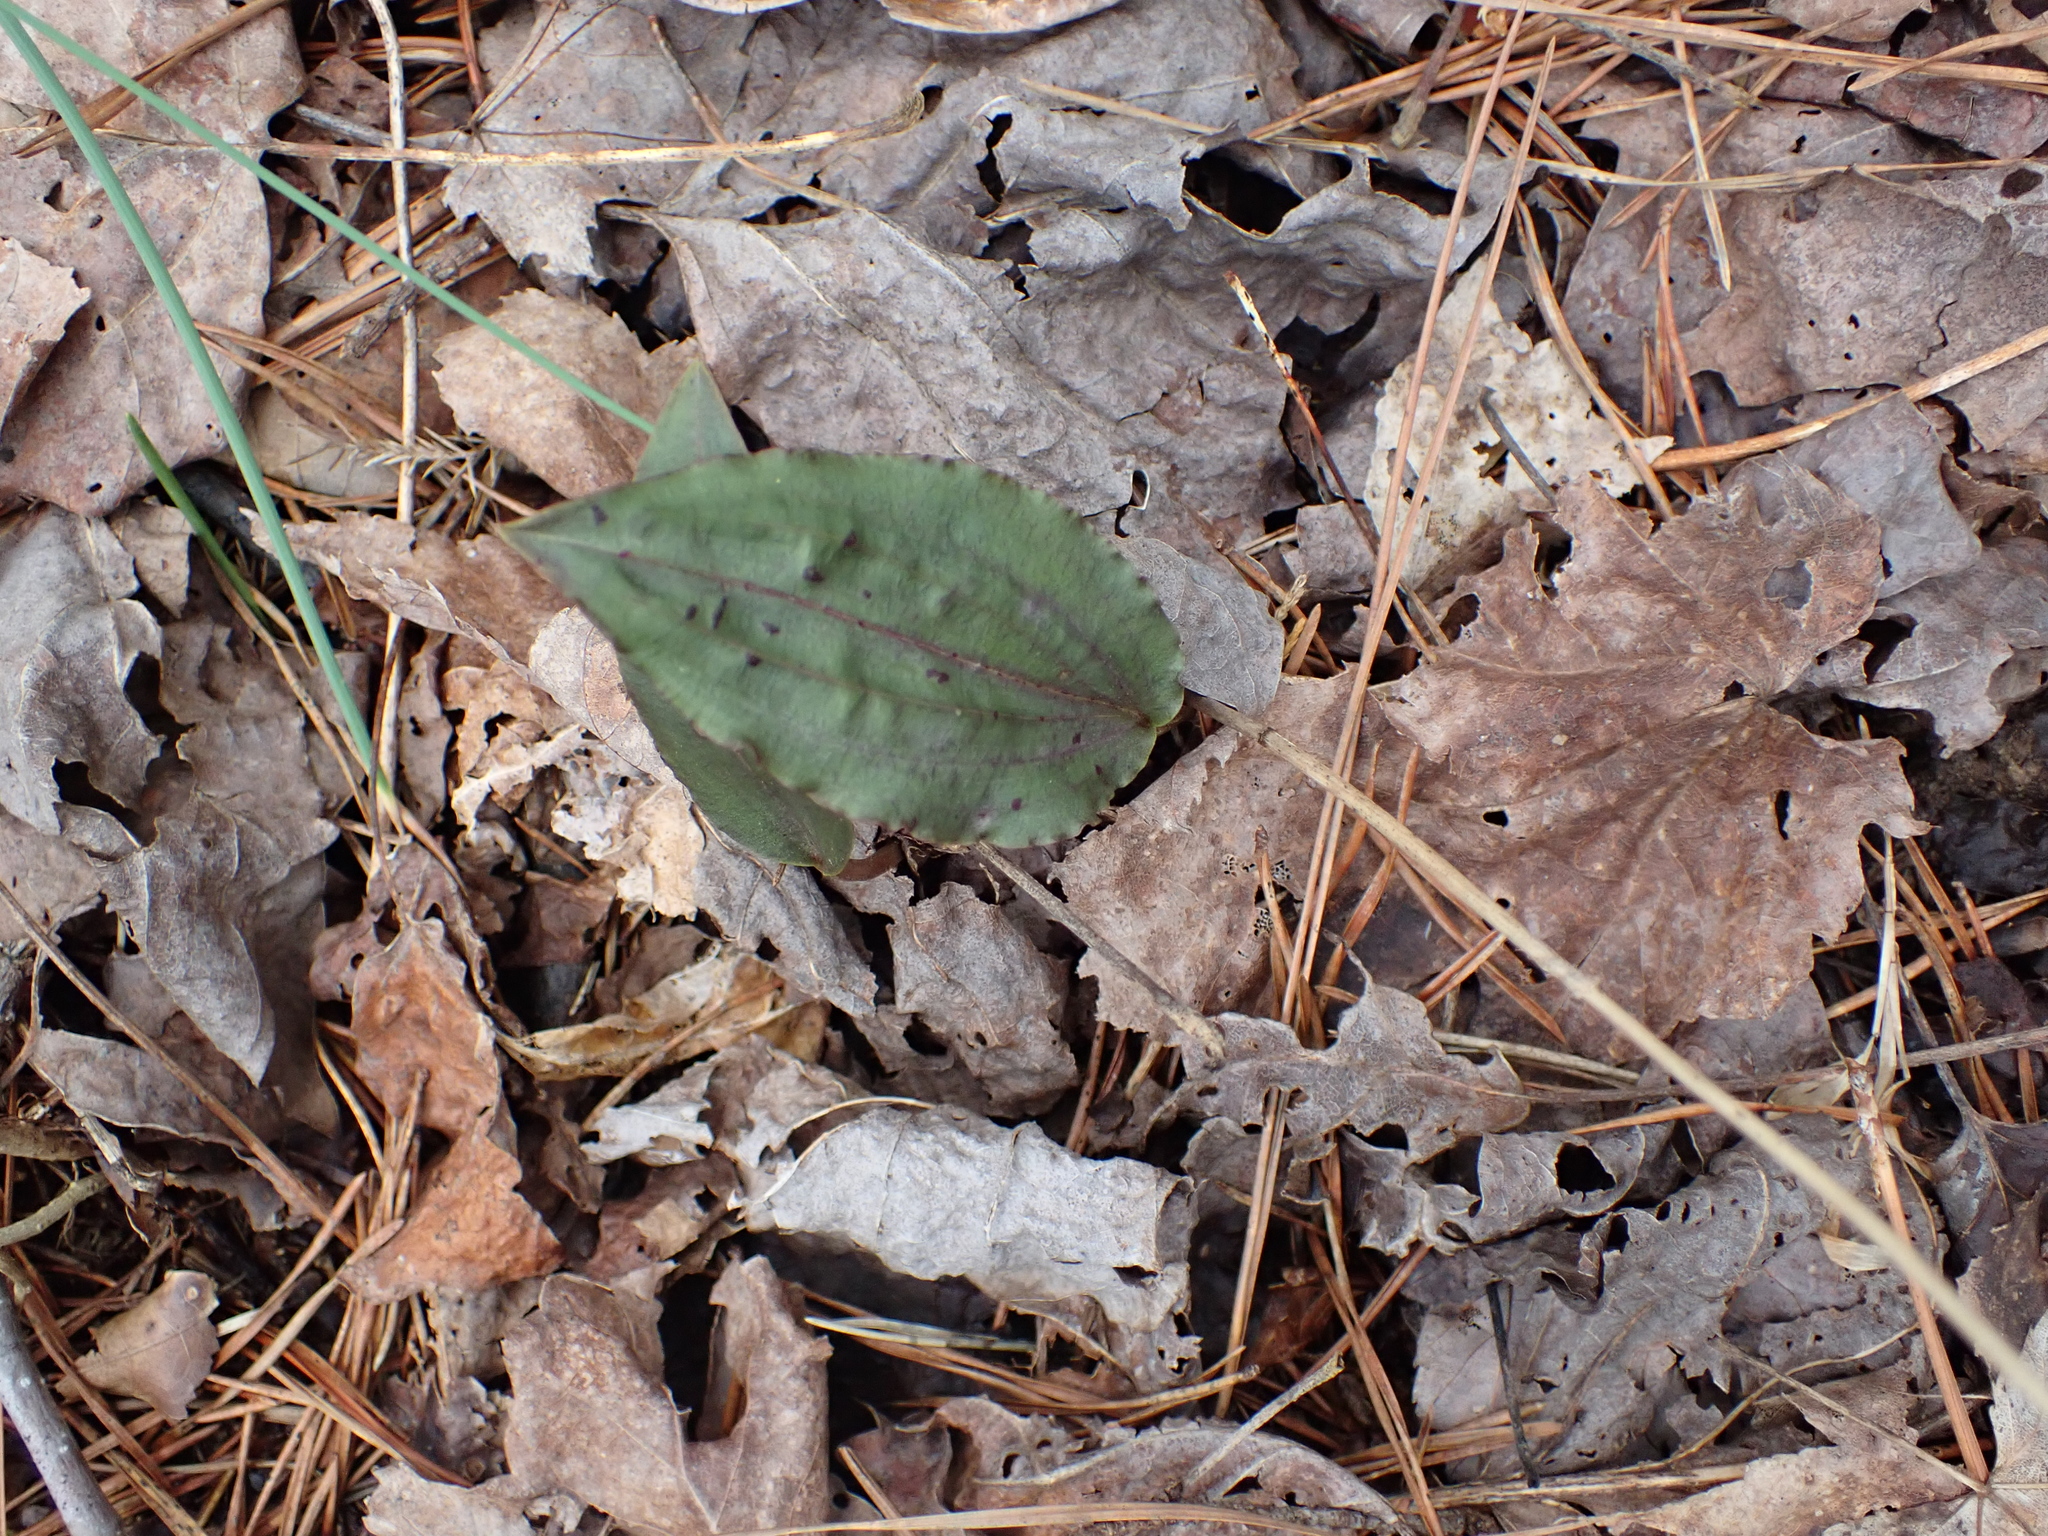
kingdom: Plantae
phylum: Tracheophyta
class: Liliopsida
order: Asparagales
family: Orchidaceae
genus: Tipularia
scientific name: Tipularia discolor
